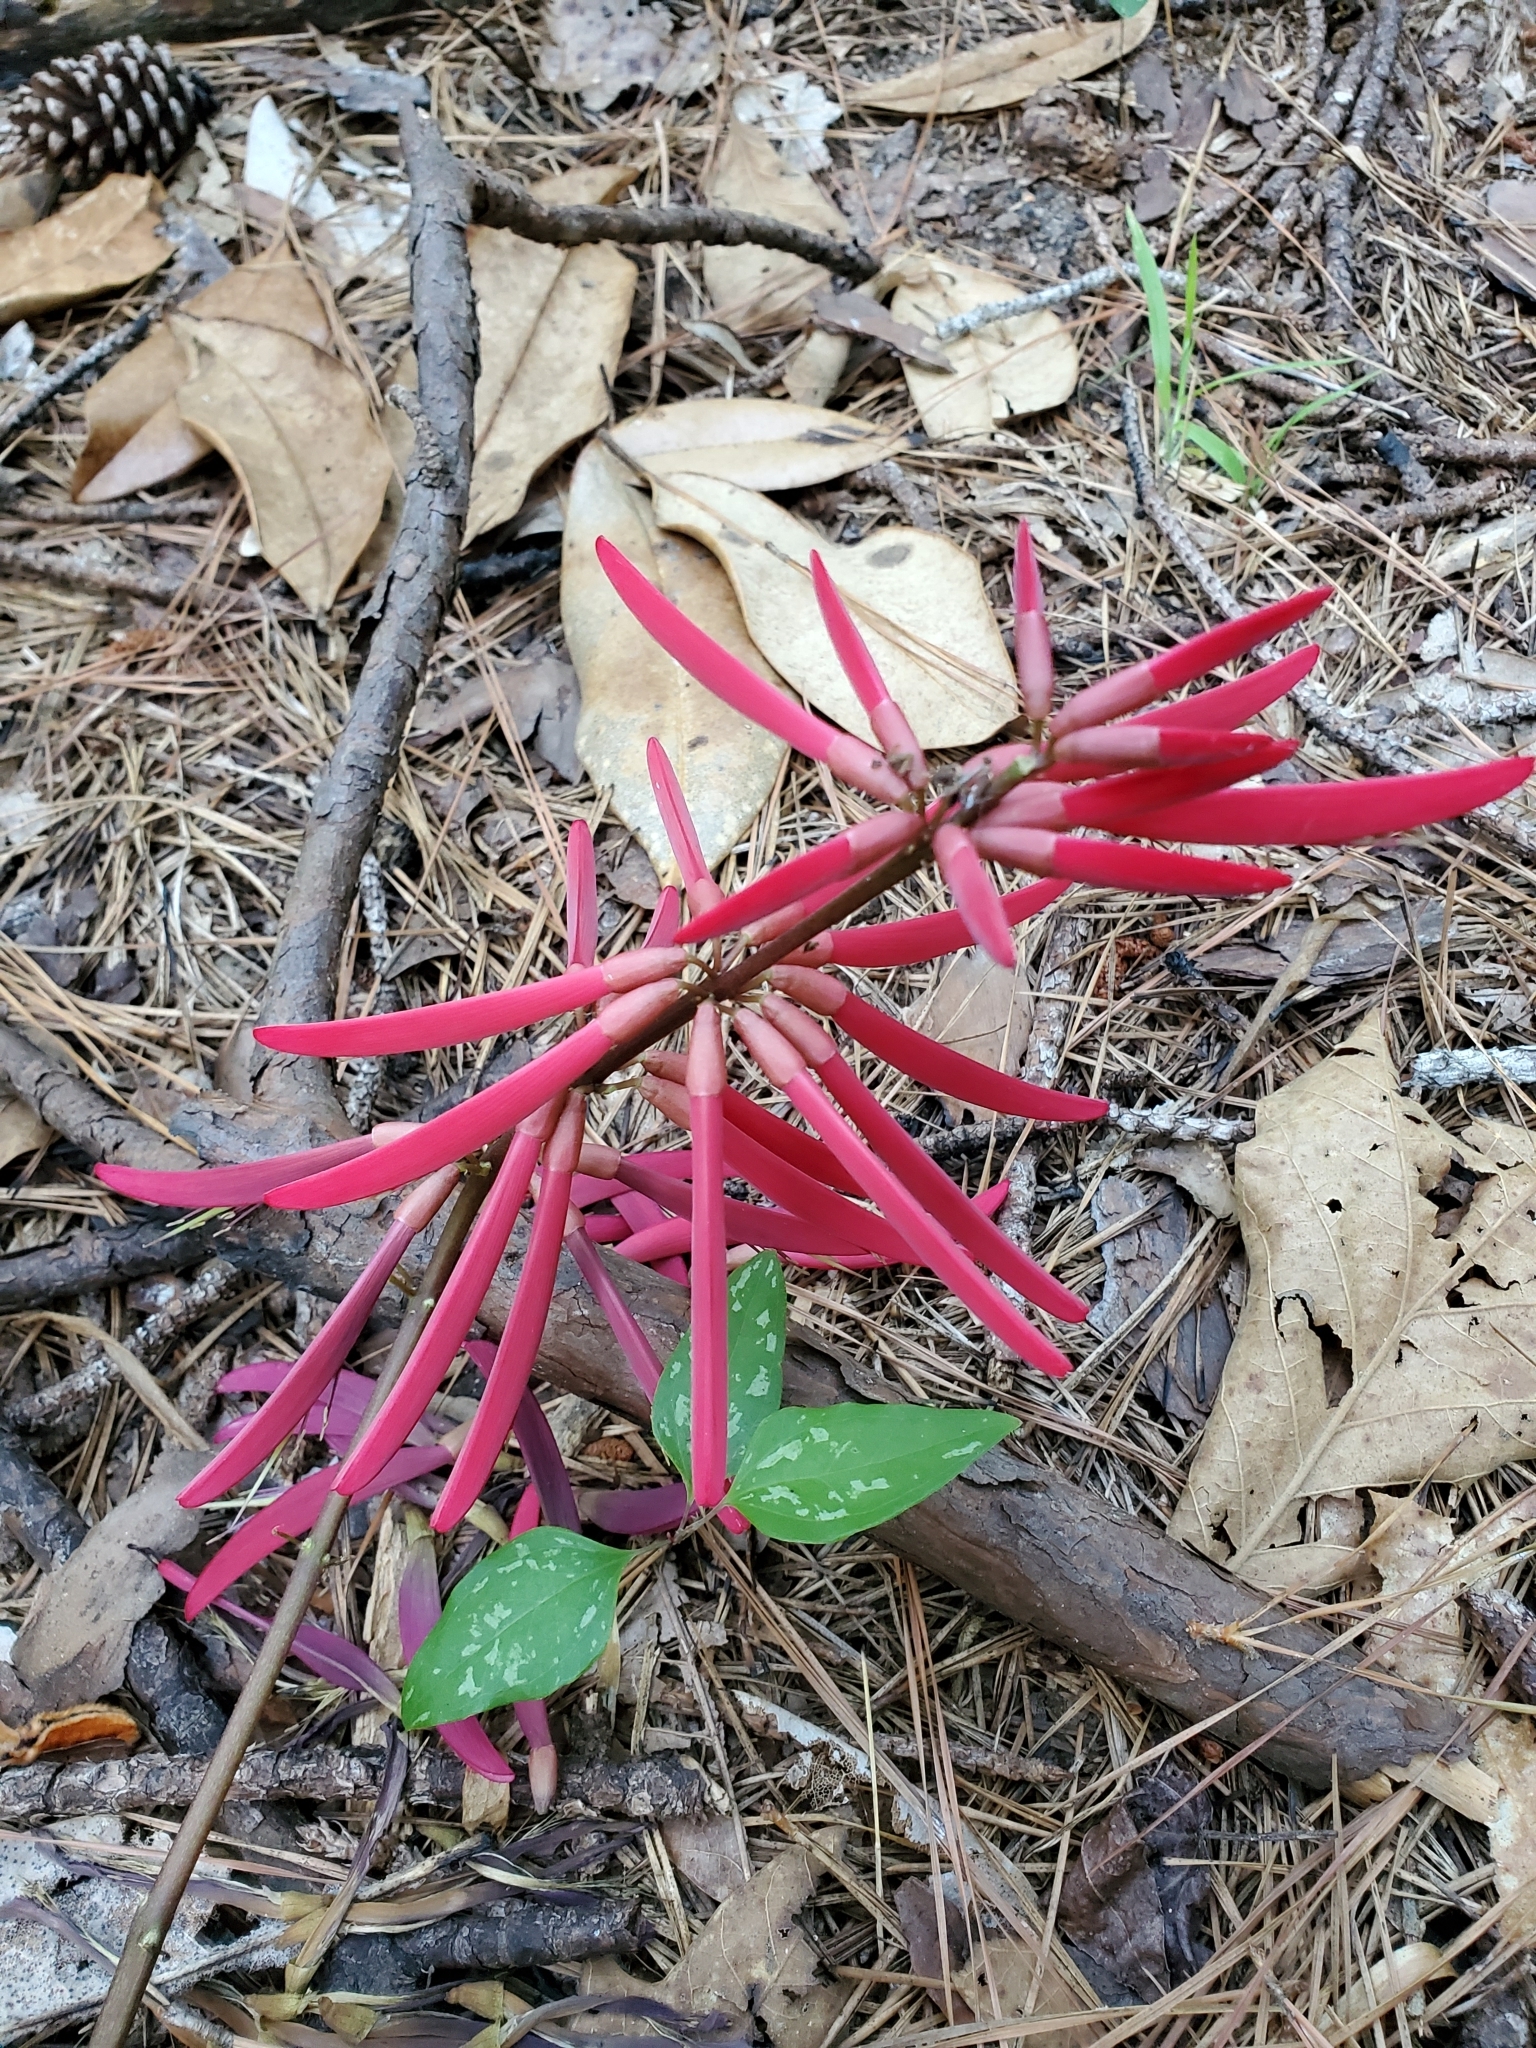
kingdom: Plantae
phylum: Tracheophyta
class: Magnoliopsida
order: Fabales
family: Fabaceae
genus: Erythrina
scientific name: Erythrina herbacea
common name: Coral-bean
